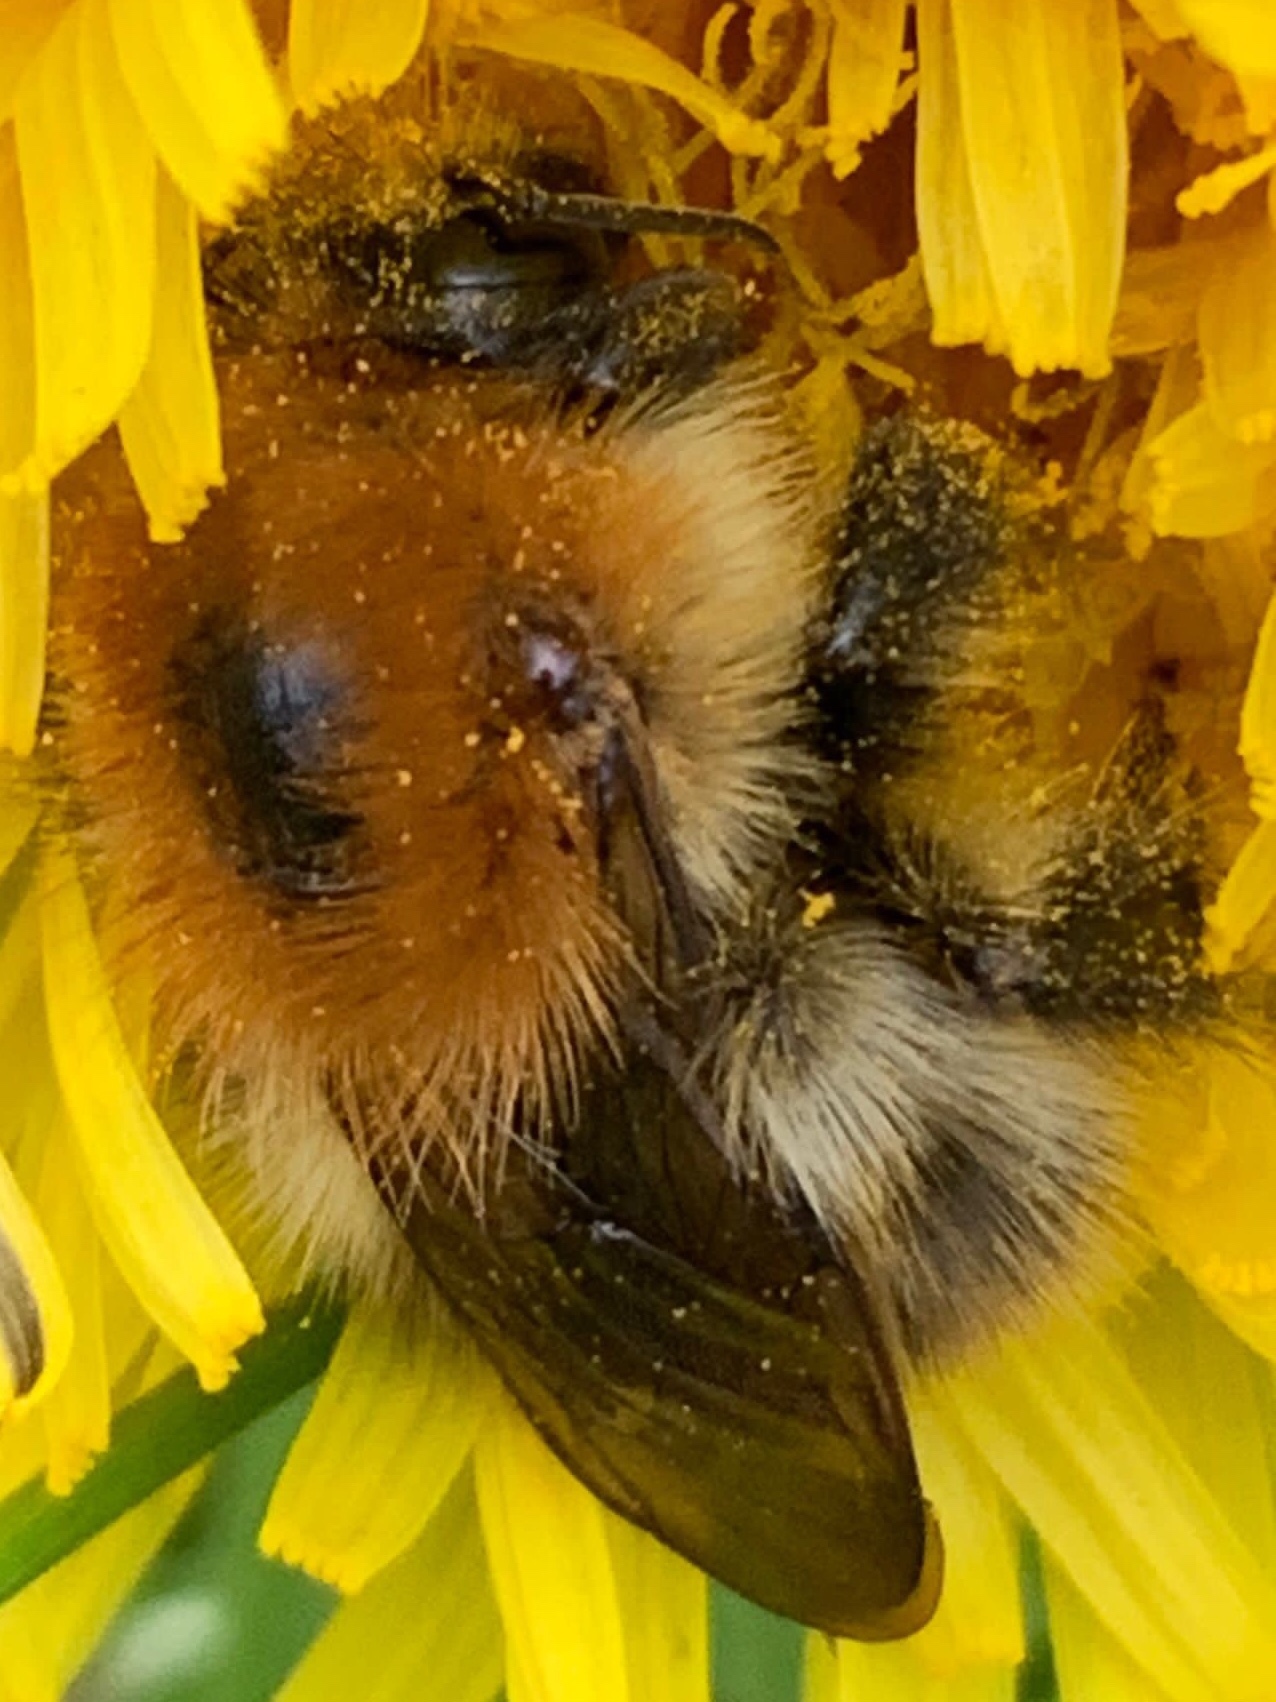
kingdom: Animalia
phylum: Arthropoda
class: Insecta
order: Hymenoptera
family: Apidae
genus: Bombus
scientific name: Bombus pascuorum
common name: Common carder bee
